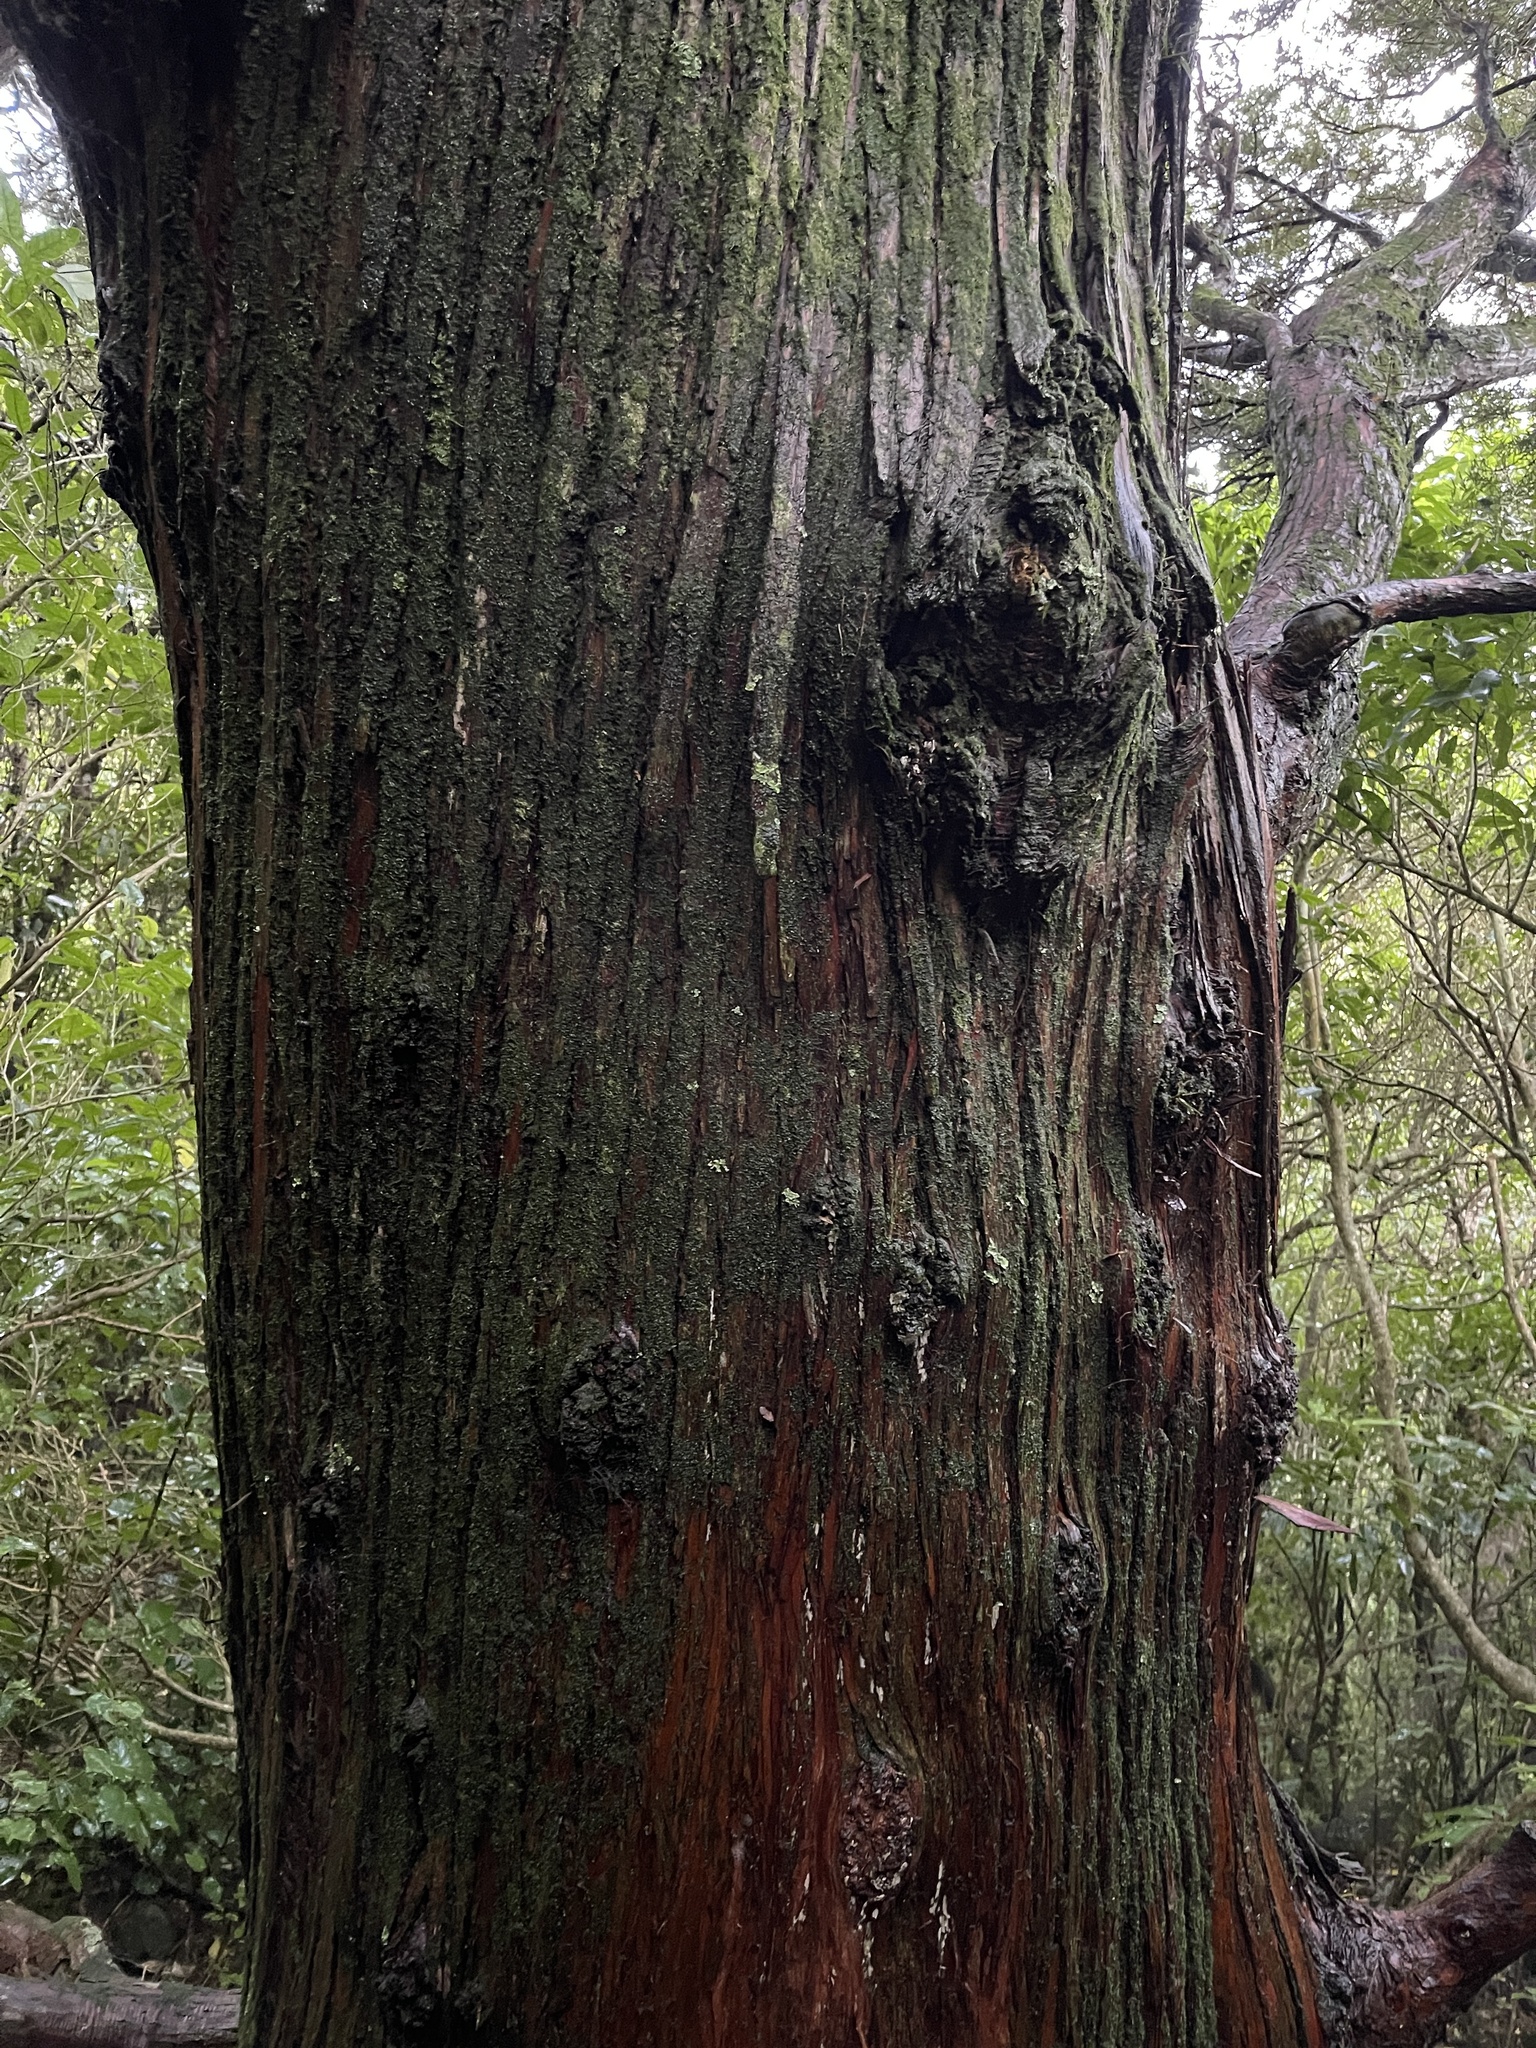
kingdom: Plantae
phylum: Tracheophyta
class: Pinopsida
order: Pinales
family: Podocarpaceae
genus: Podocarpus
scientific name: Podocarpus totara
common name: Totara
